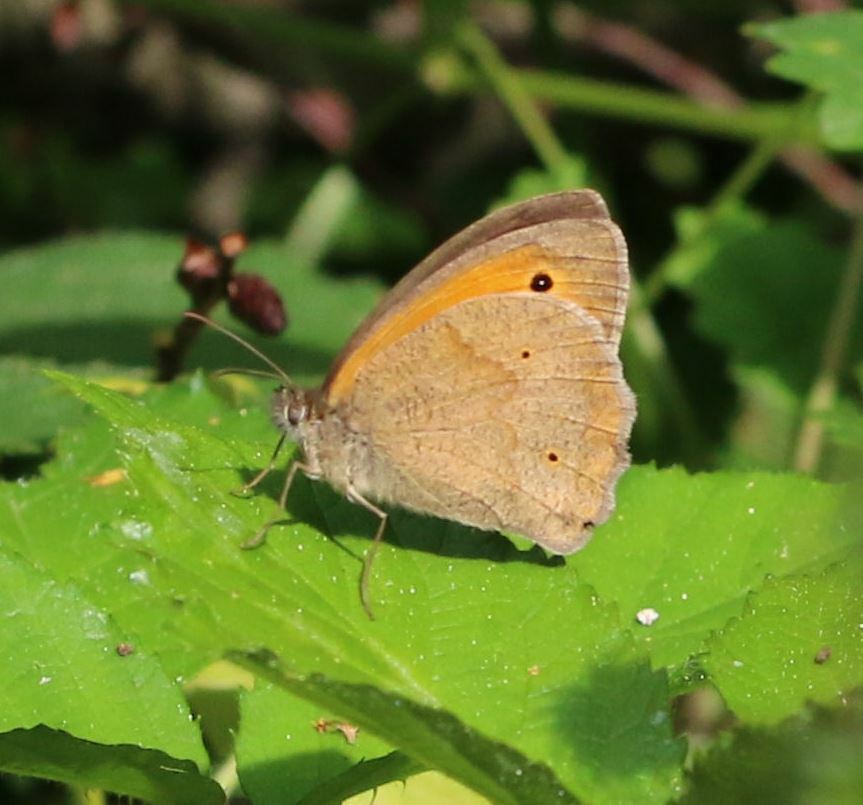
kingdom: Animalia
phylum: Arthropoda
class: Insecta
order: Lepidoptera
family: Nymphalidae
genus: Maniola
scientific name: Maniola jurtina
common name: Meadow brown
